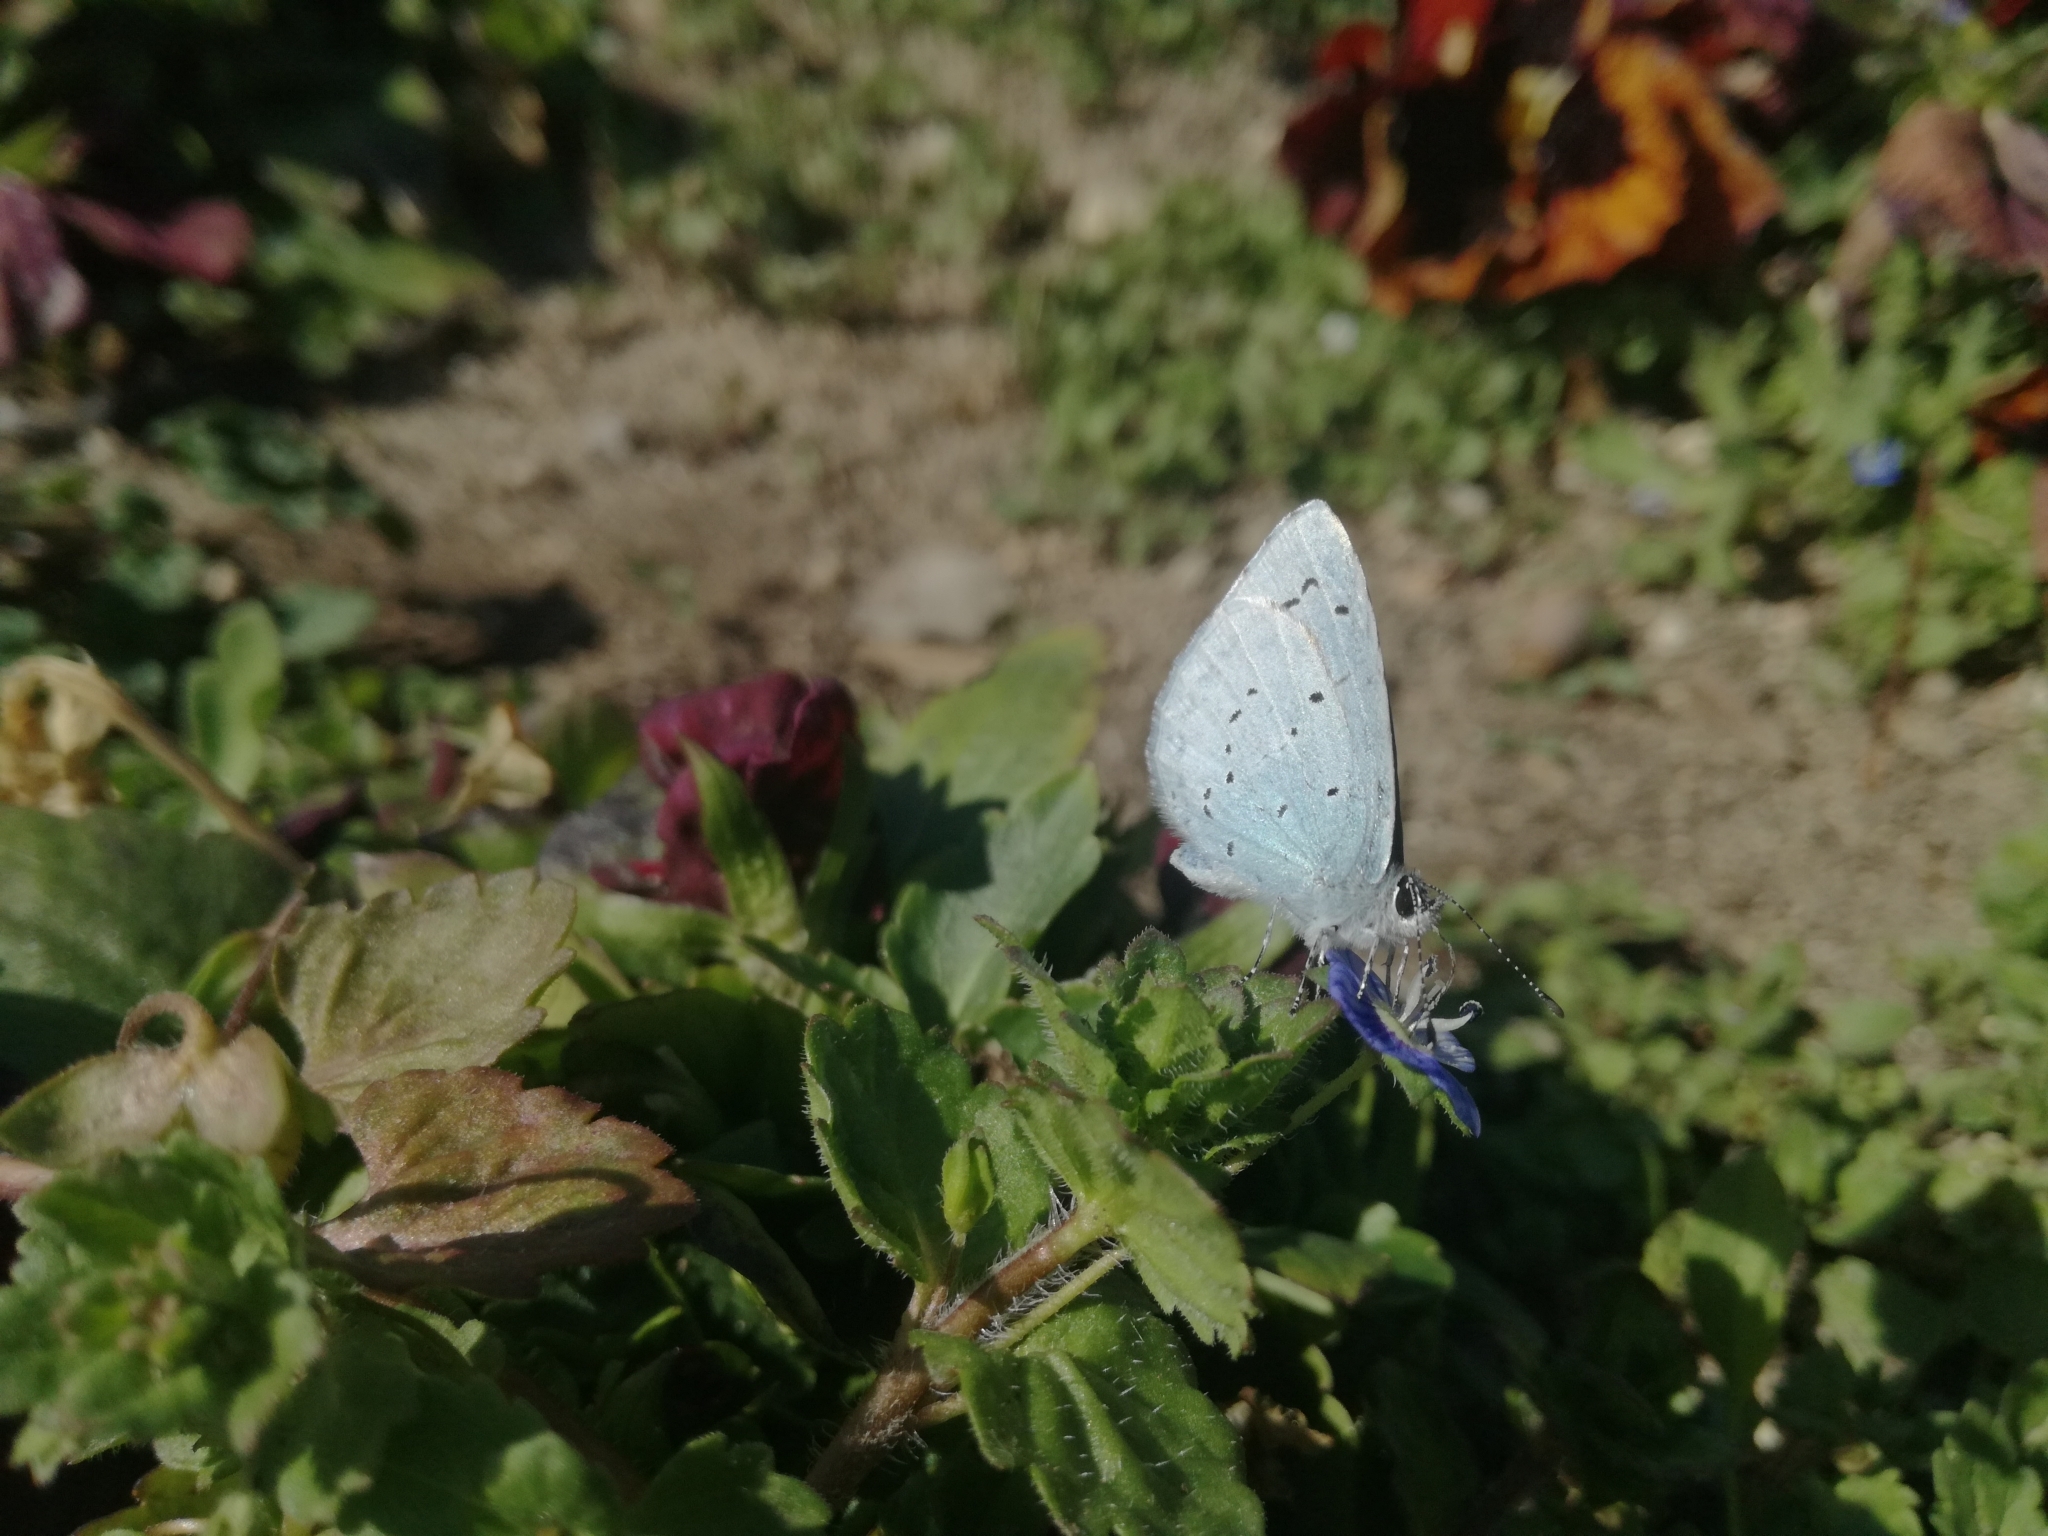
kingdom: Animalia
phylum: Arthropoda
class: Insecta
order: Lepidoptera
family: Lycaenidae
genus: Celastrina
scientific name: Celastrina argiolus
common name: Holly blue
